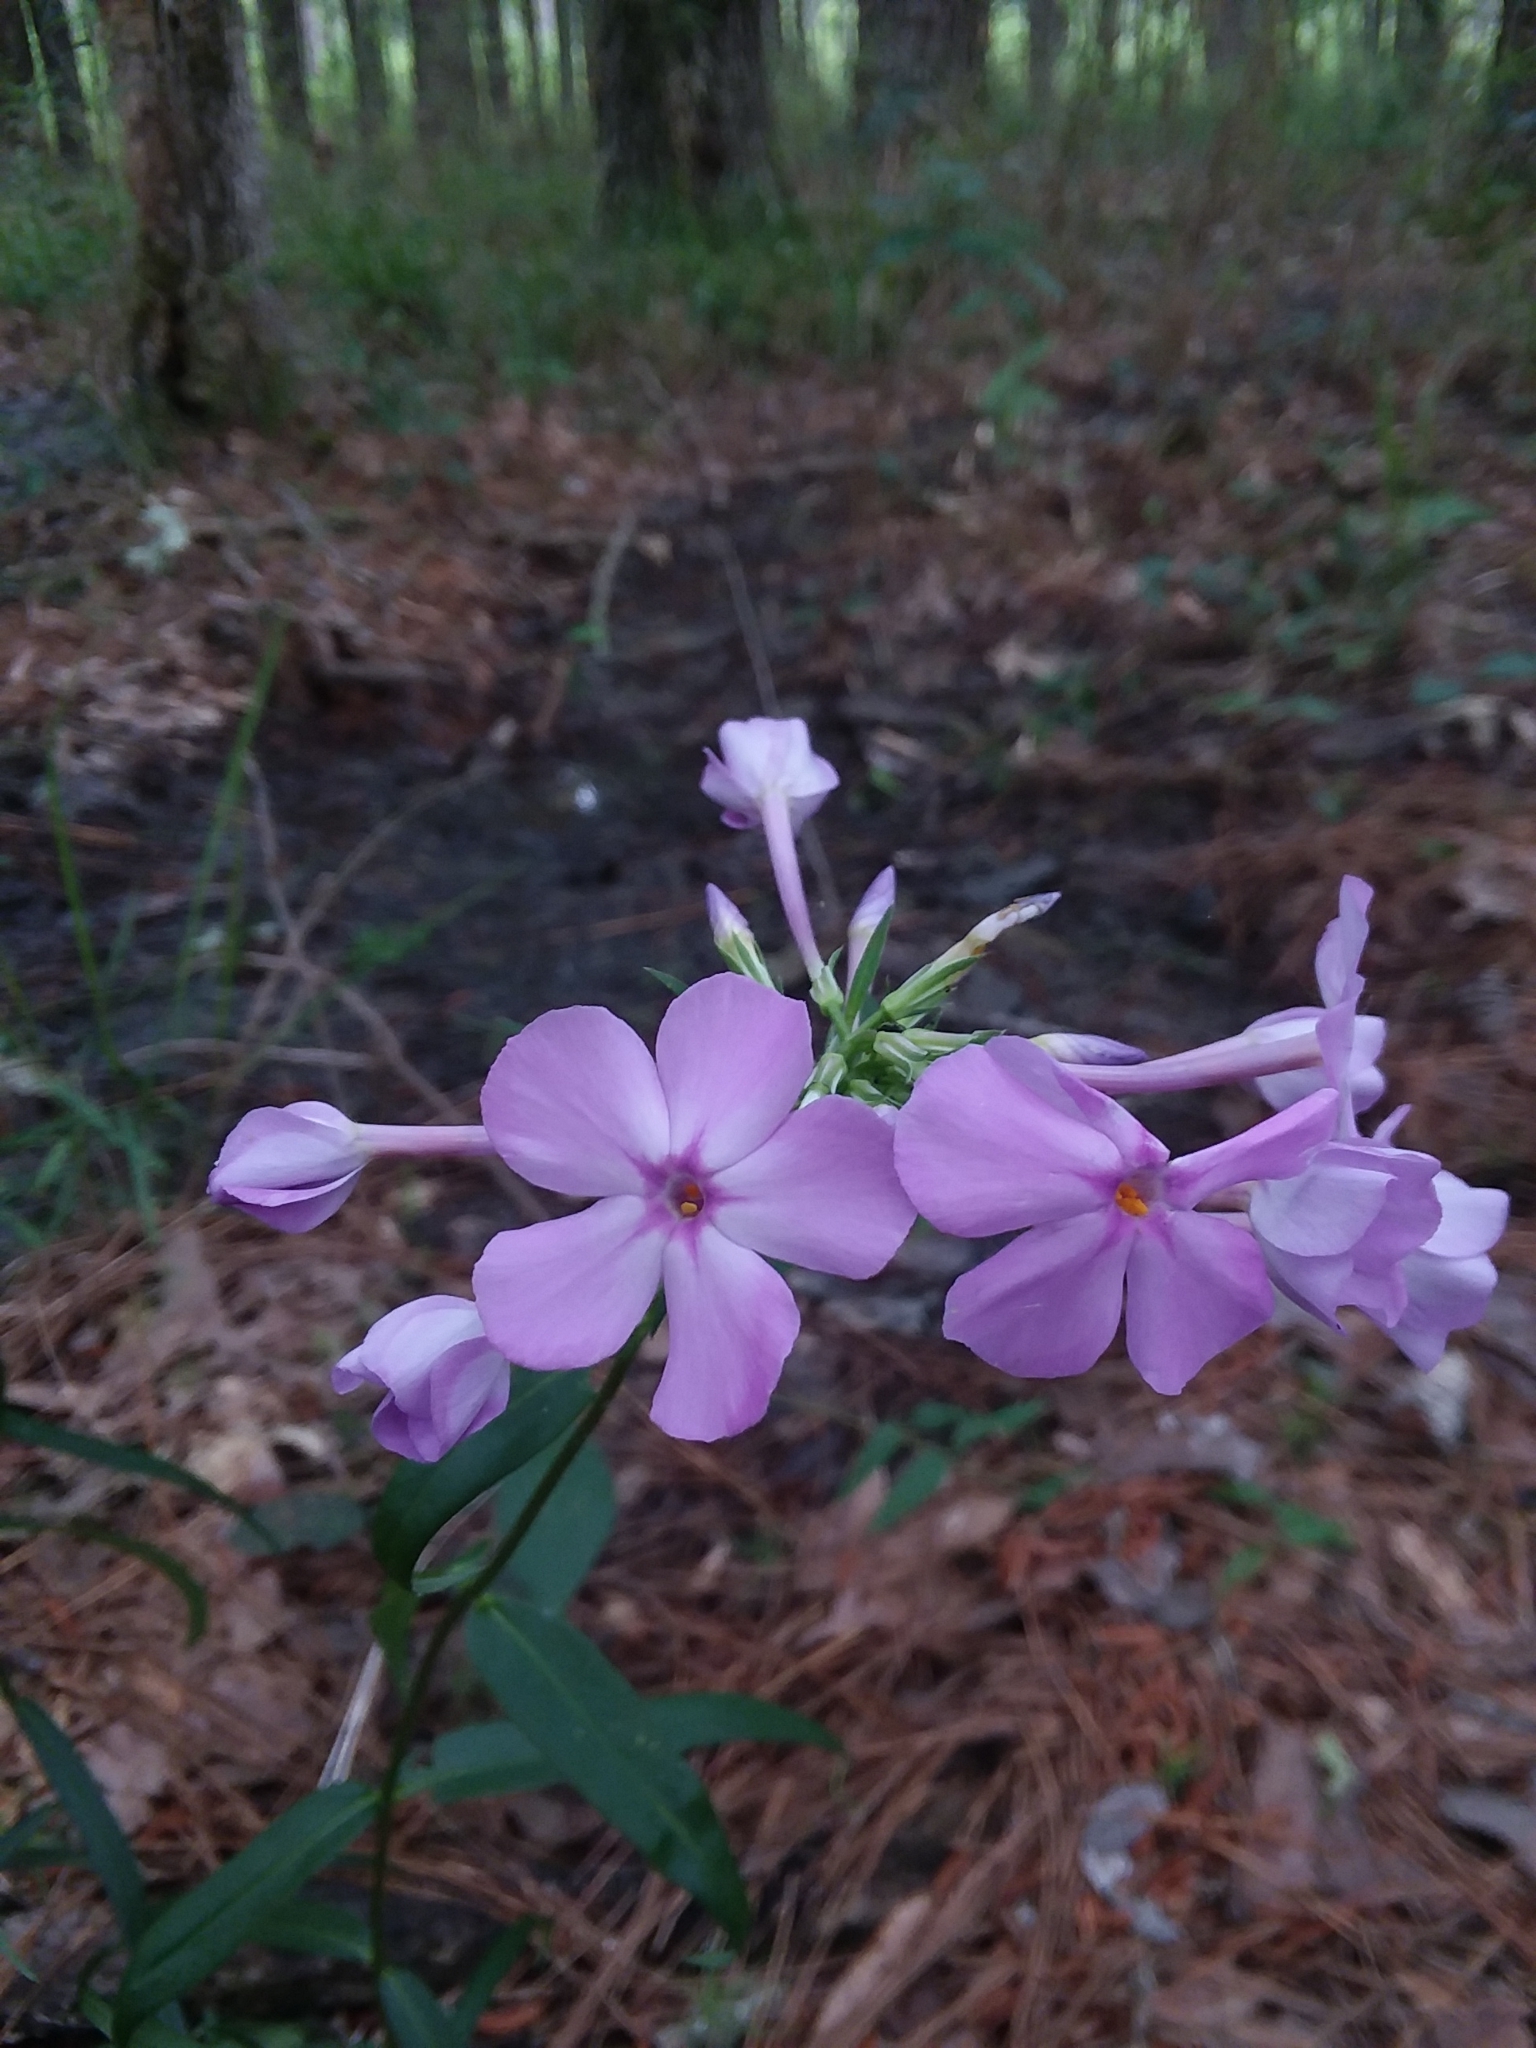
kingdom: Plantae
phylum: Tracheophyta
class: Magnoliopsida
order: Ericales
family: Polemoniaceae
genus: Phlox
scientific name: Phlox carolina
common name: Thick-leaf phlox
